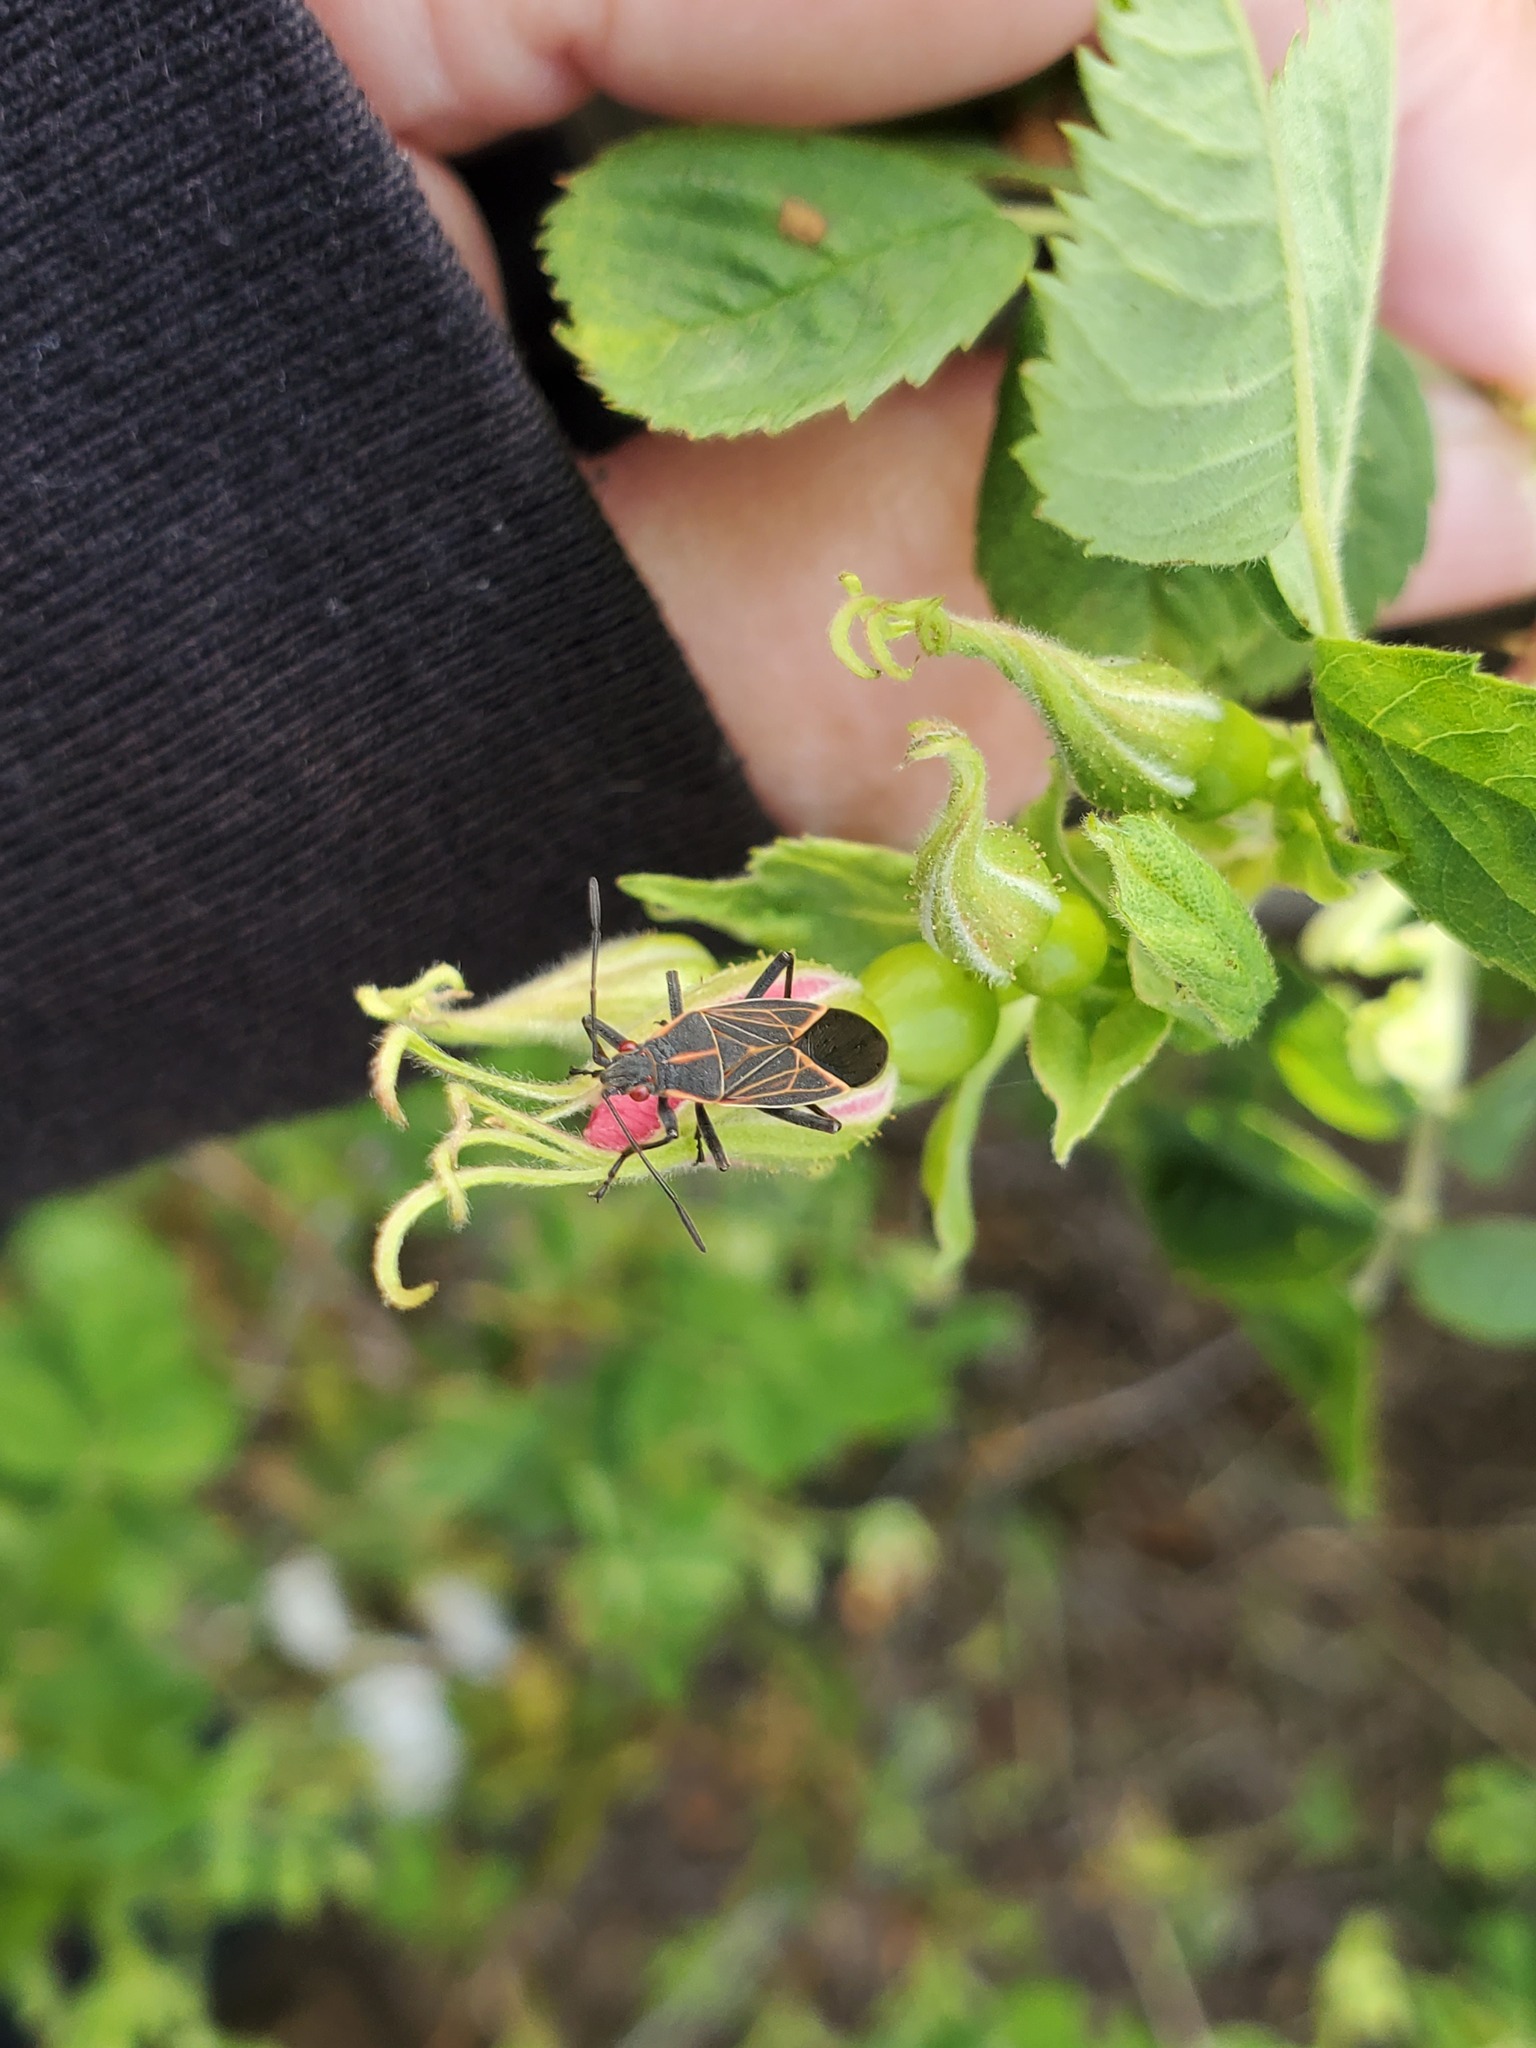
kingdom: Animalia
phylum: Arthropoda
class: Insecta
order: Hemiptera
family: Rhopalidae
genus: Boisea
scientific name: Boisea rubrolineata
